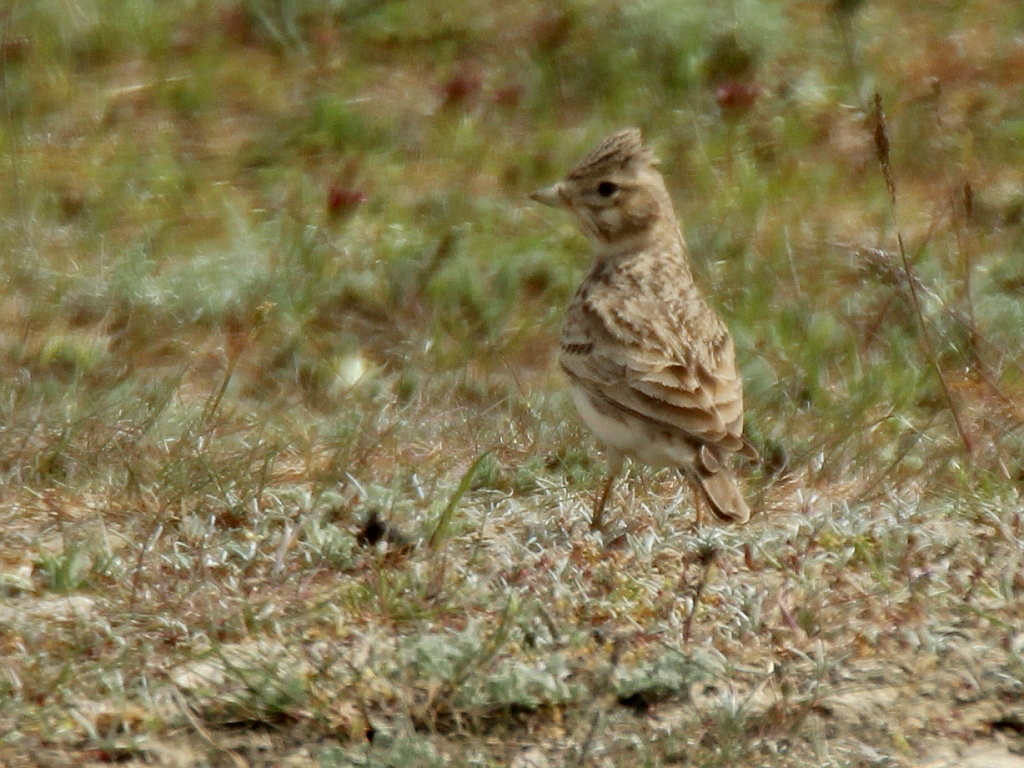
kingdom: Animalia
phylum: Chordata
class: Aves
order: Passeriformes
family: Alaudidae
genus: Calandrella
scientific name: Calandrella rufescens
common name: Lesser short-toed lark
